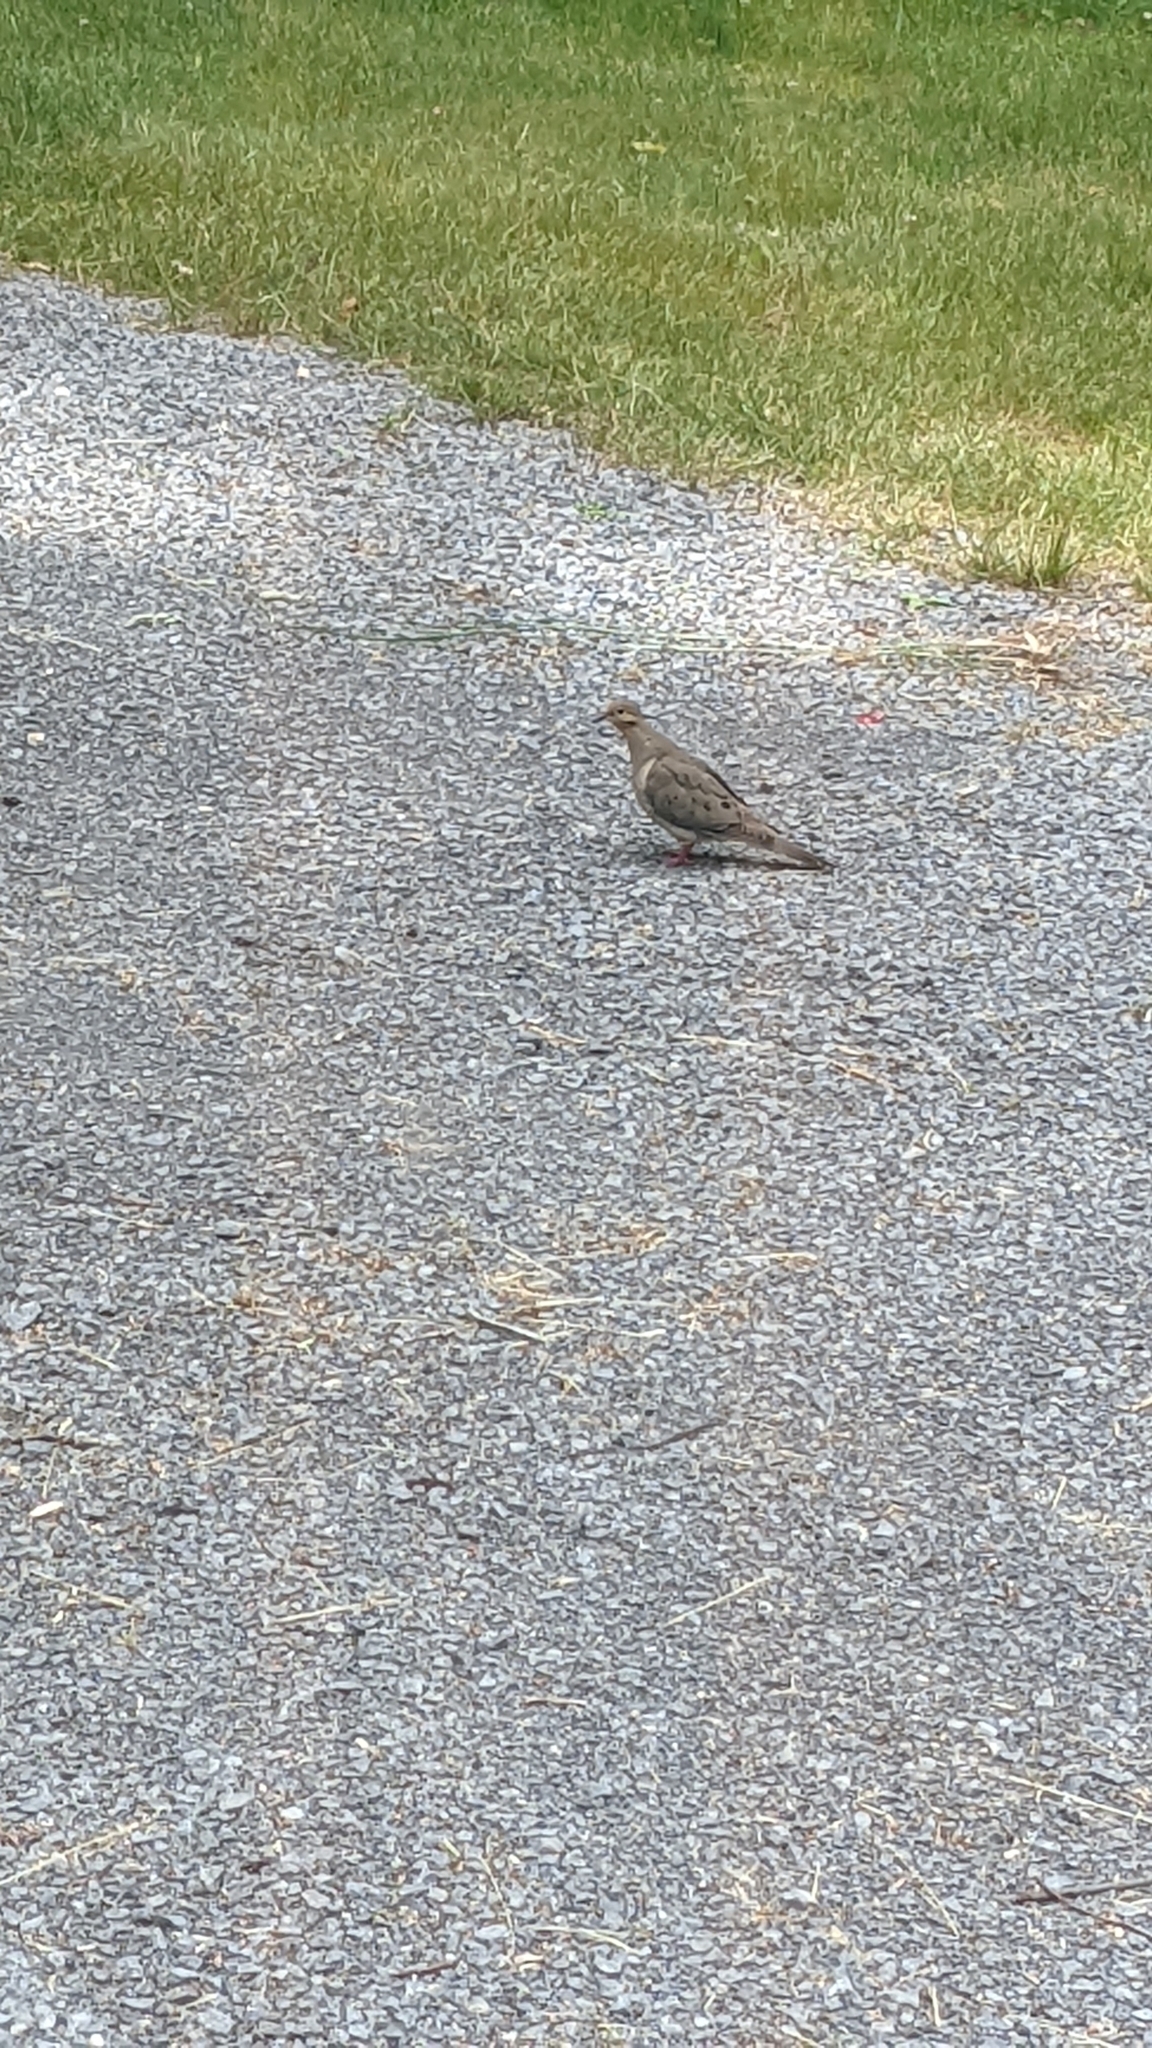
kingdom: Animalia
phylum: Chordata
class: Aves
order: Columbiformes
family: Columbidae
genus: Zenaida
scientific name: Zenaida macroura
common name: Mourning dove
